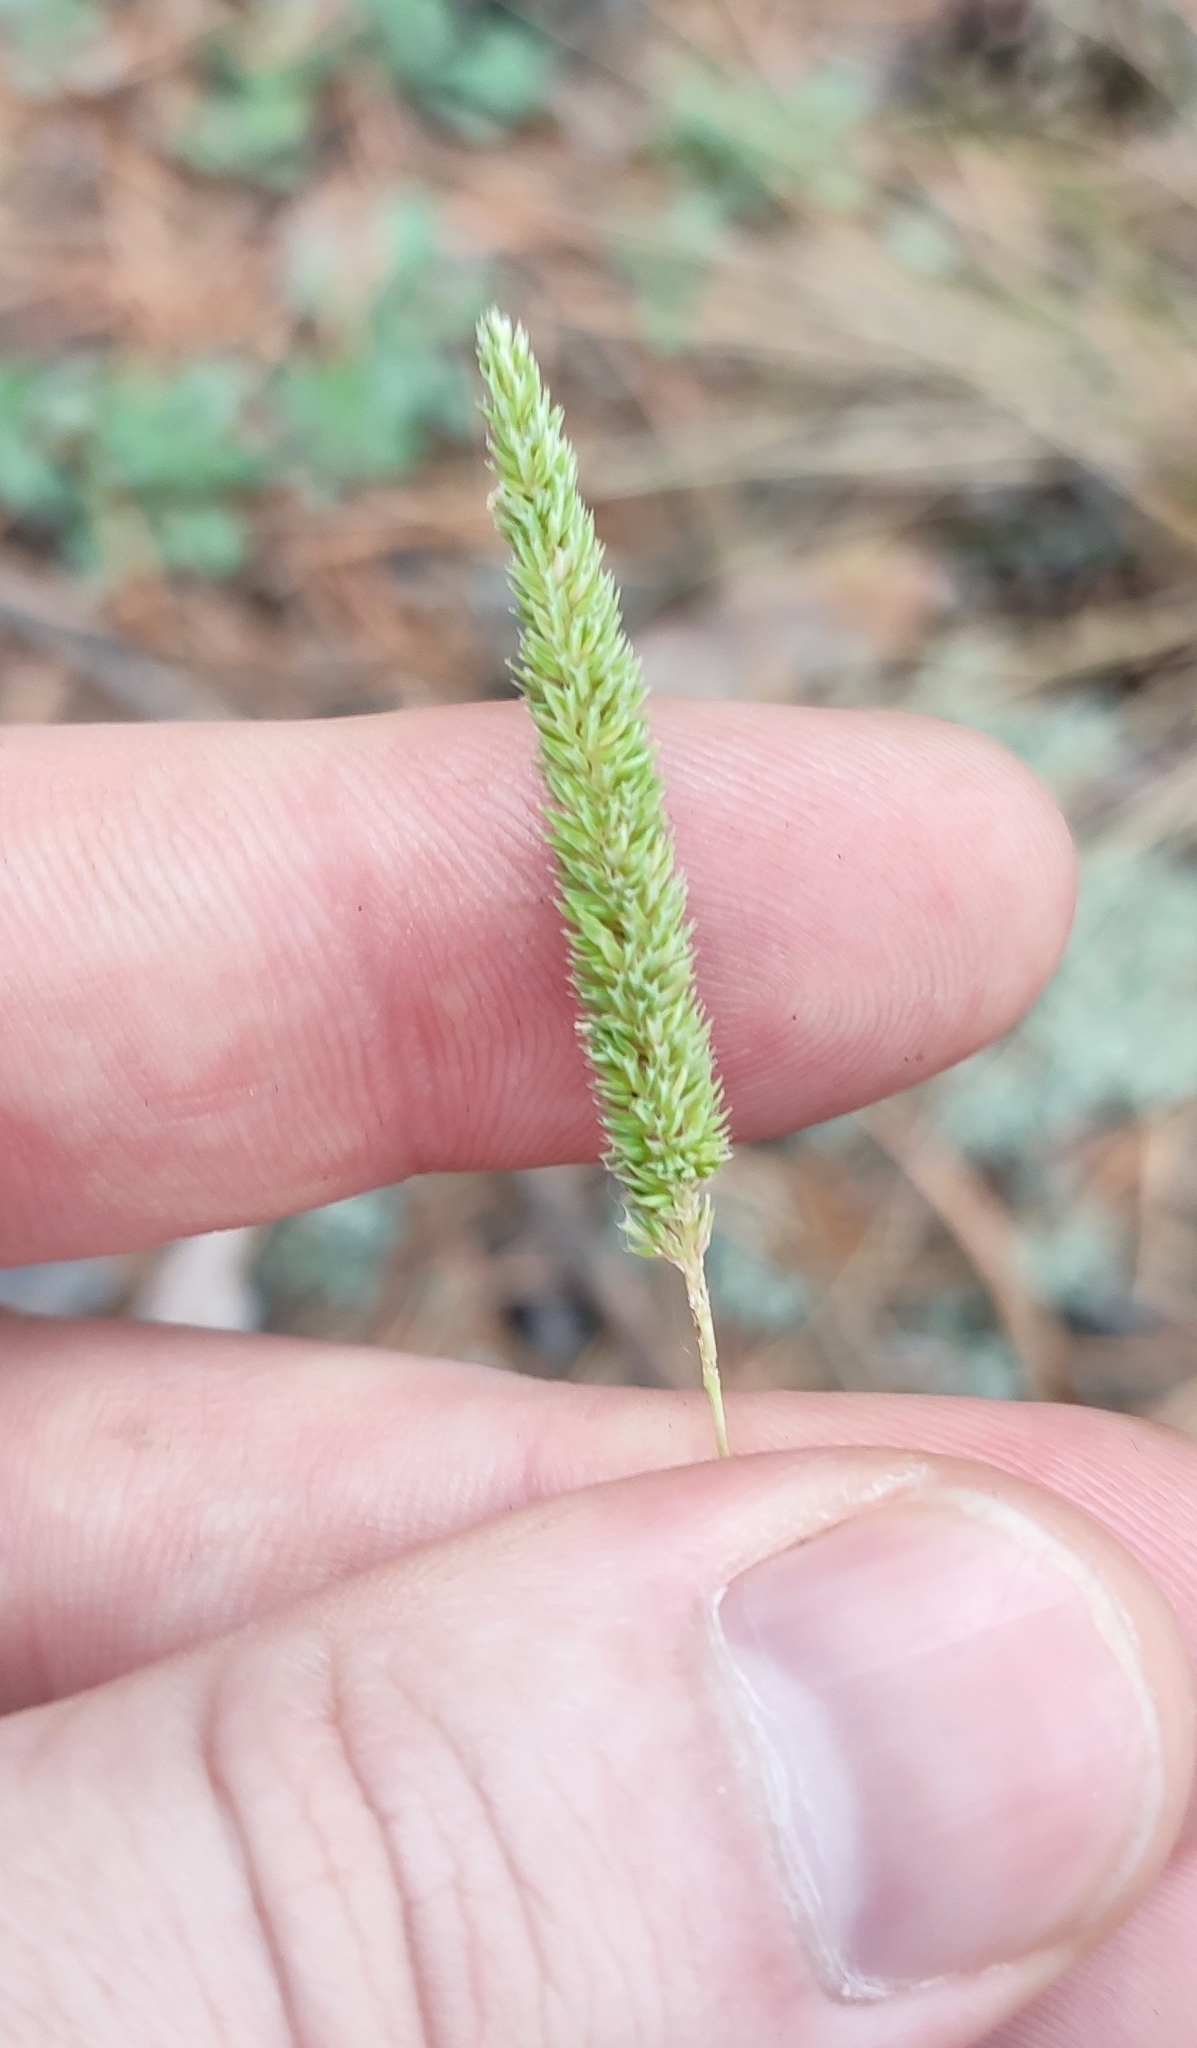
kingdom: Plantae
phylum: Tracheophyta
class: Liliopsida
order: Poales
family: Poaceae
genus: Phleum
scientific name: Phleum phleoides
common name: Purple-stem cat's-tail
